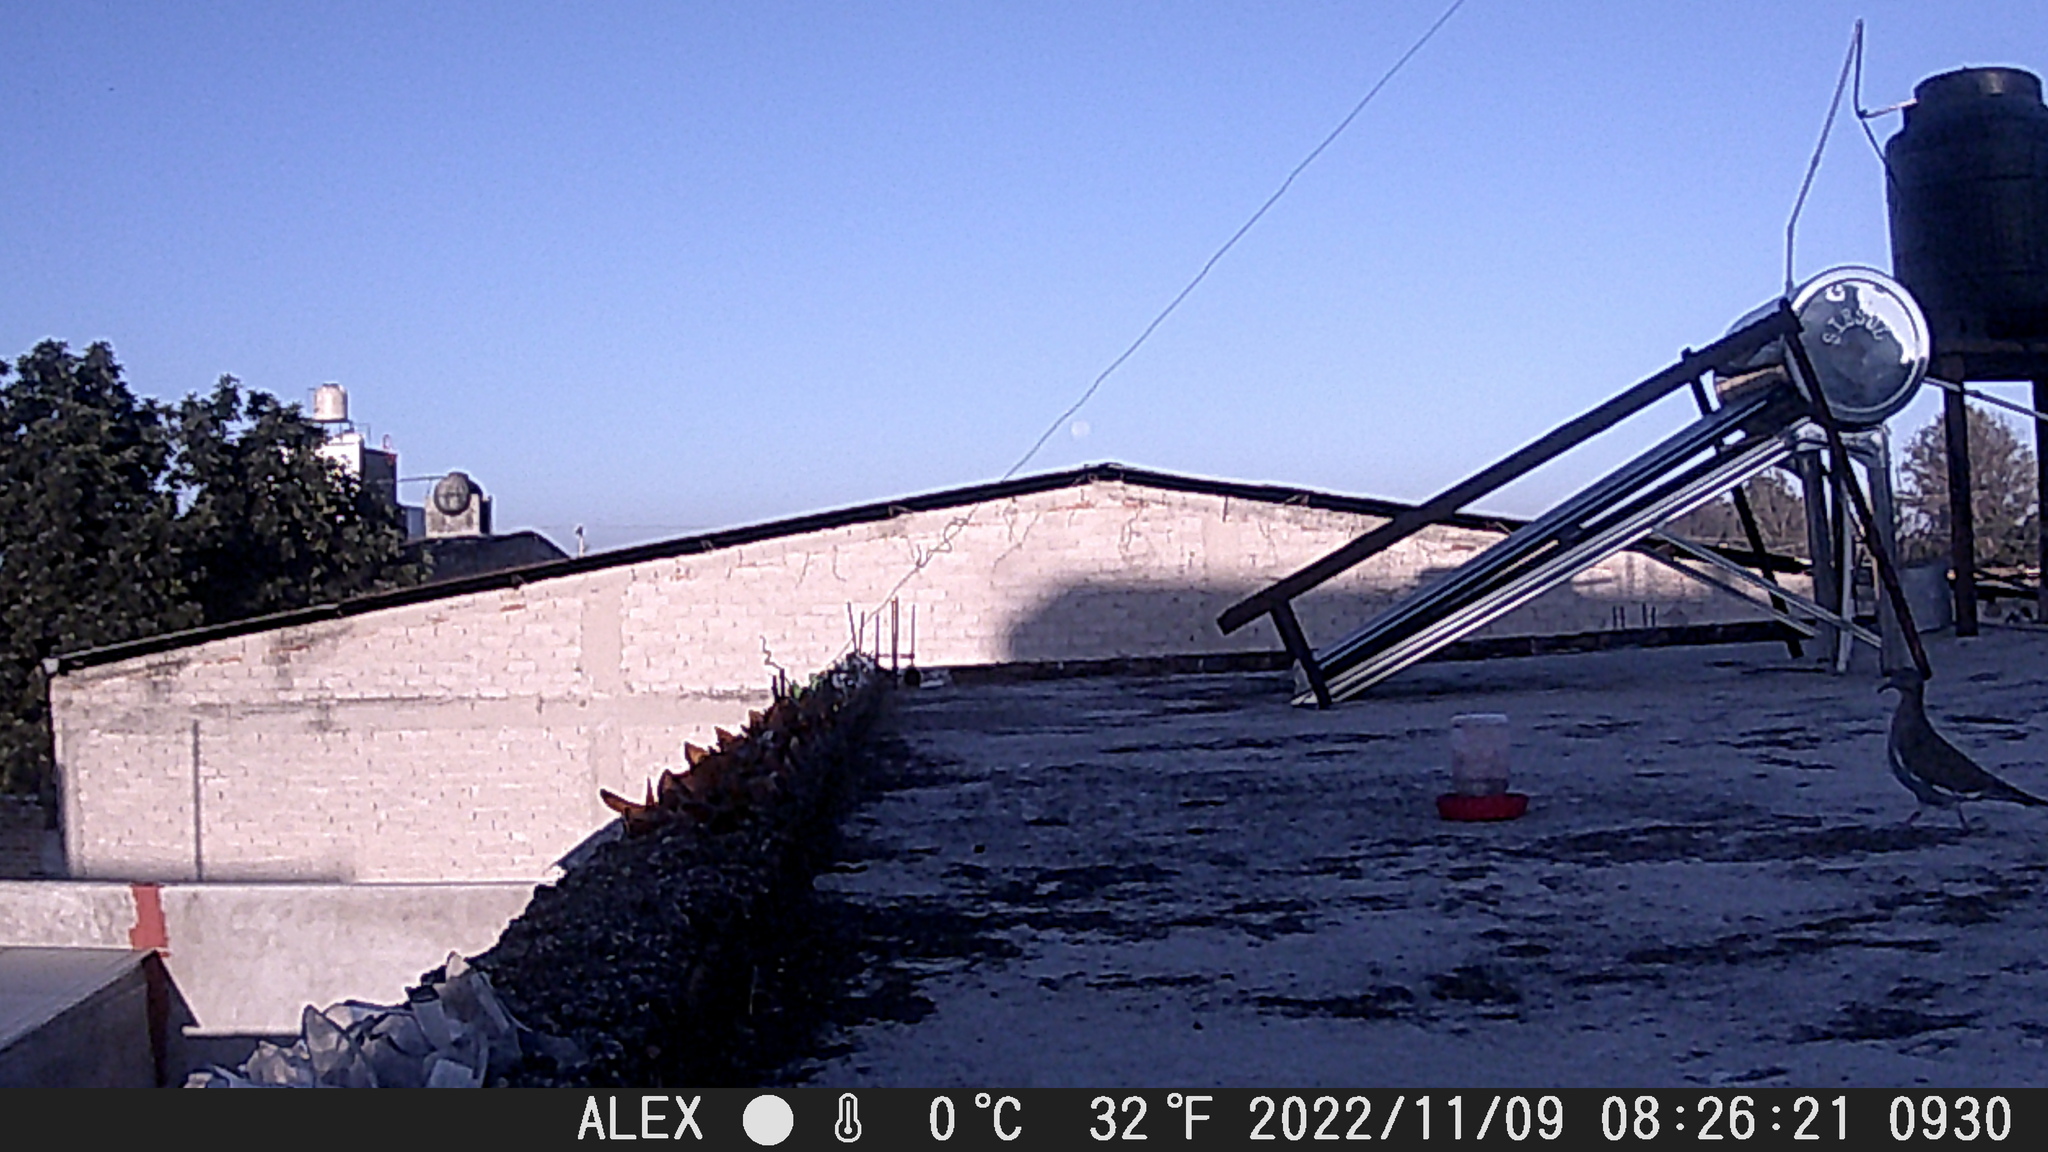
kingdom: Animalia
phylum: Chordata
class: Aves
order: Columbiformes
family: Columbidae
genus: Zenaida
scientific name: Zenaida asiatica
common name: White-winged dove
